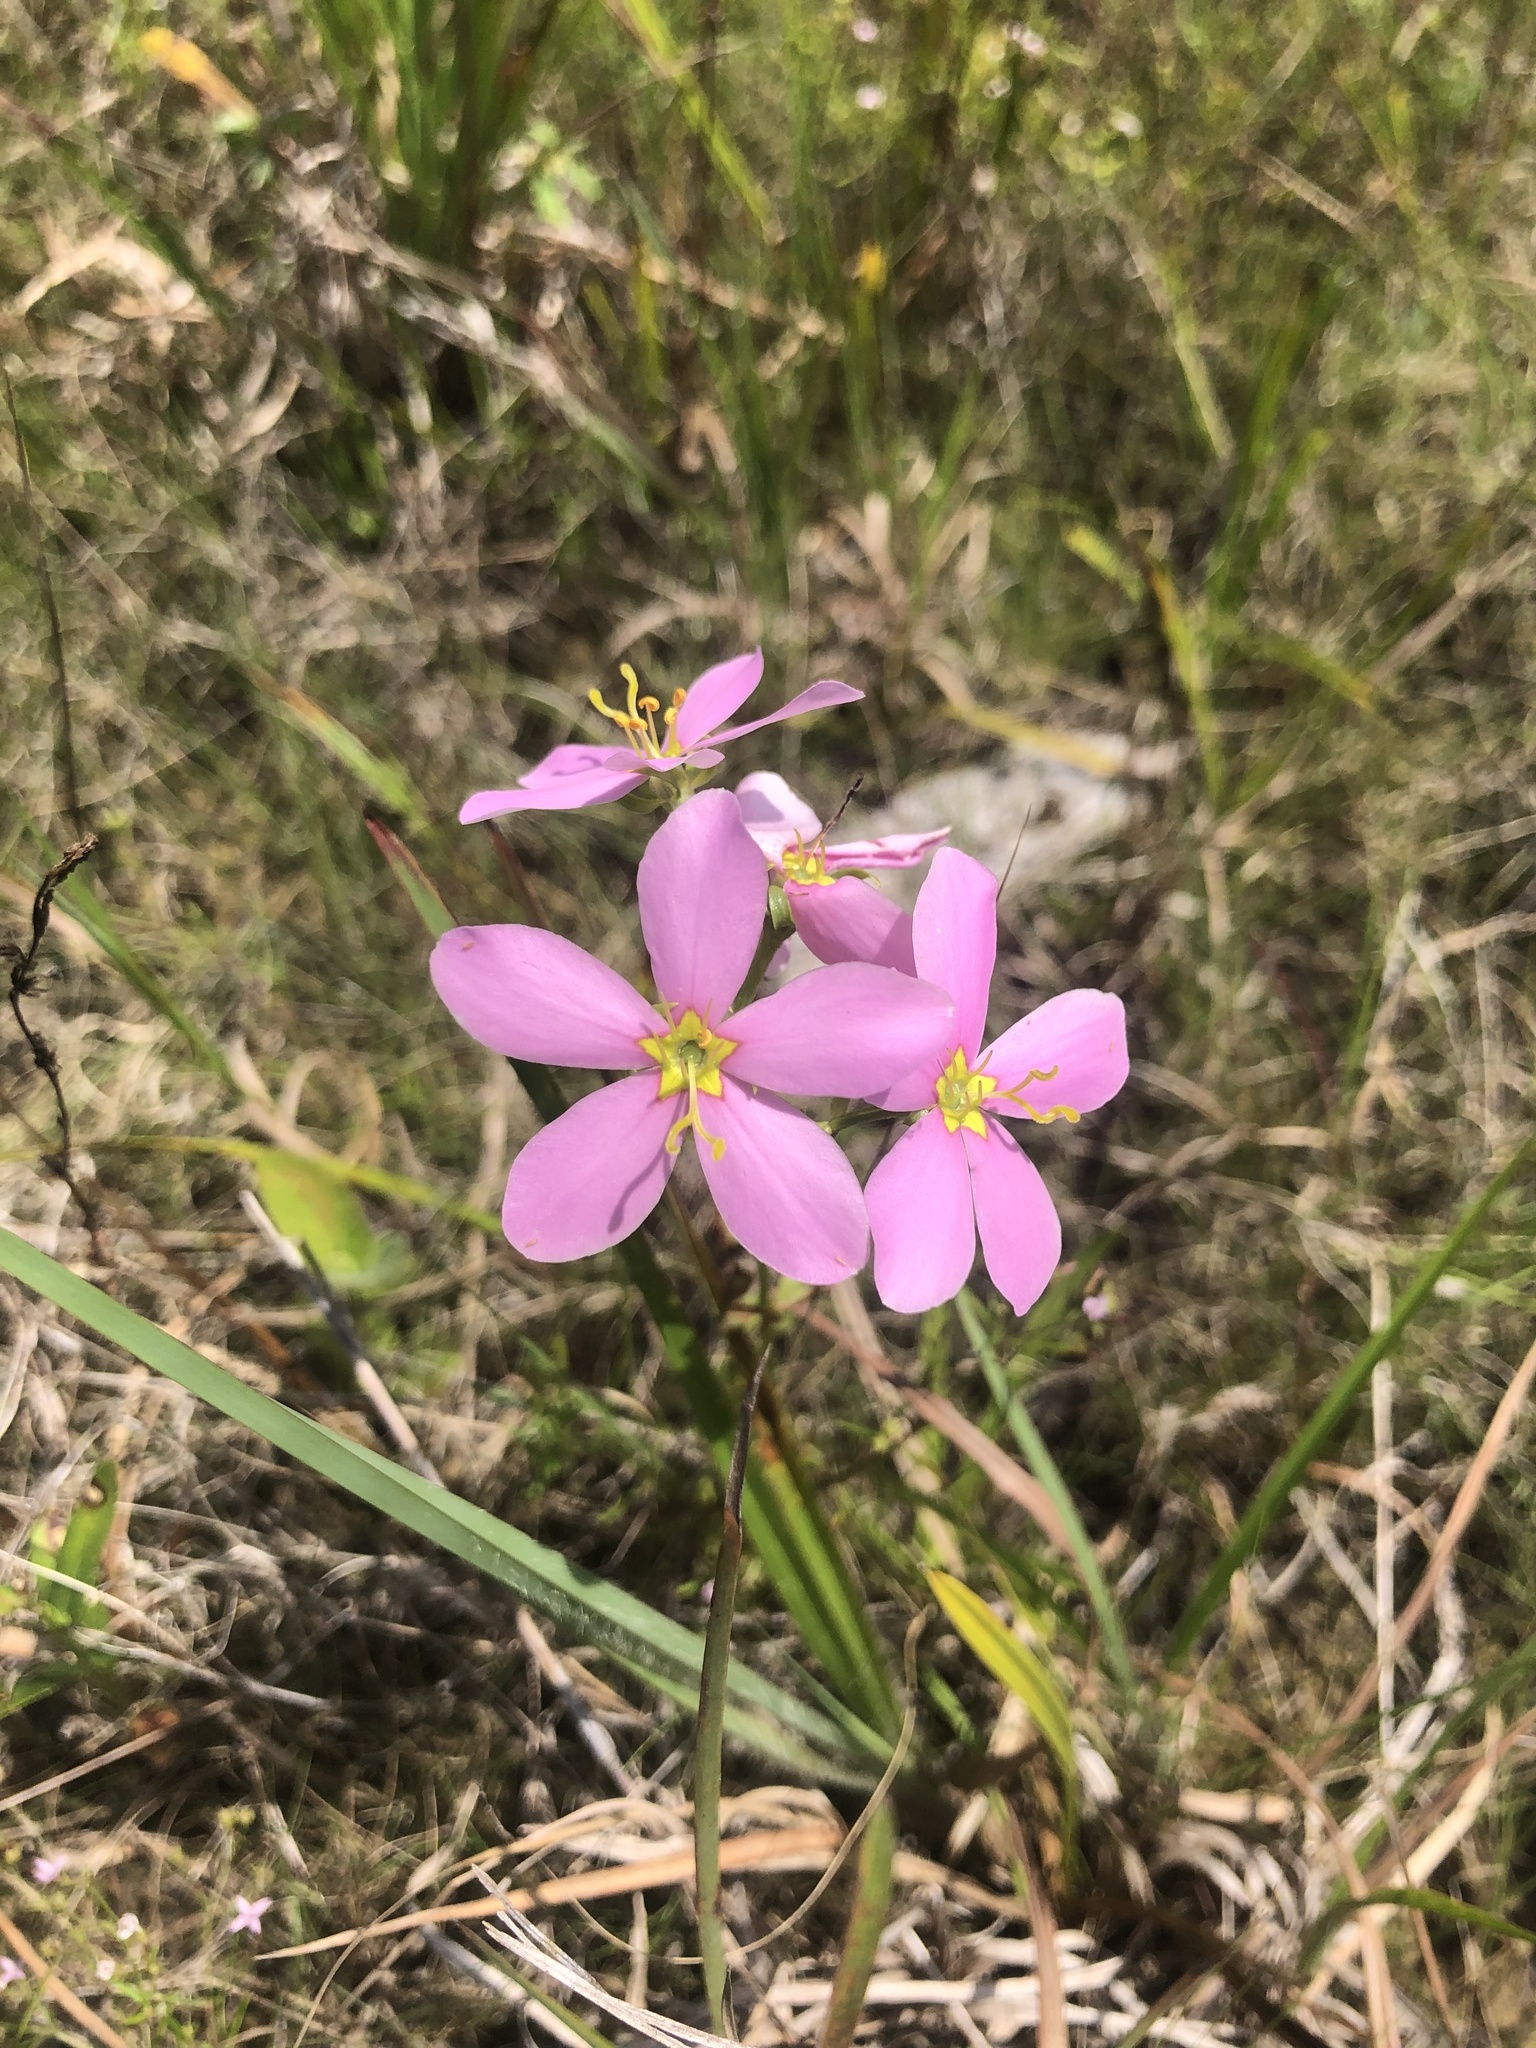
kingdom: Plantae
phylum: Tracheophyta
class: Magnoliopsida
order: Gentianales
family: Gentianaceae
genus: Sabatia
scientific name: Sabatia angularis
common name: Rose-pink
